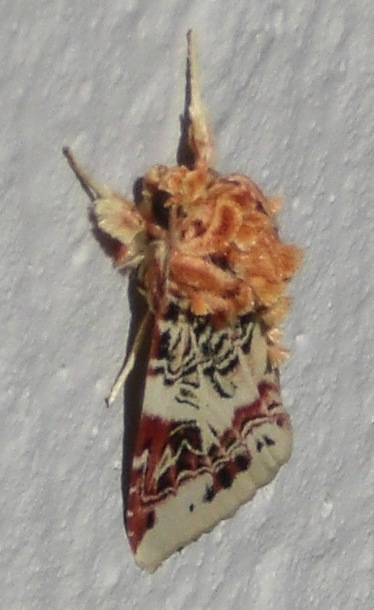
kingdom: Animalia
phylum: Arthropoda
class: Insecta
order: Lepidoptera
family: Noctuidae
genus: Spodoptera
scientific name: Spodoptera picta
